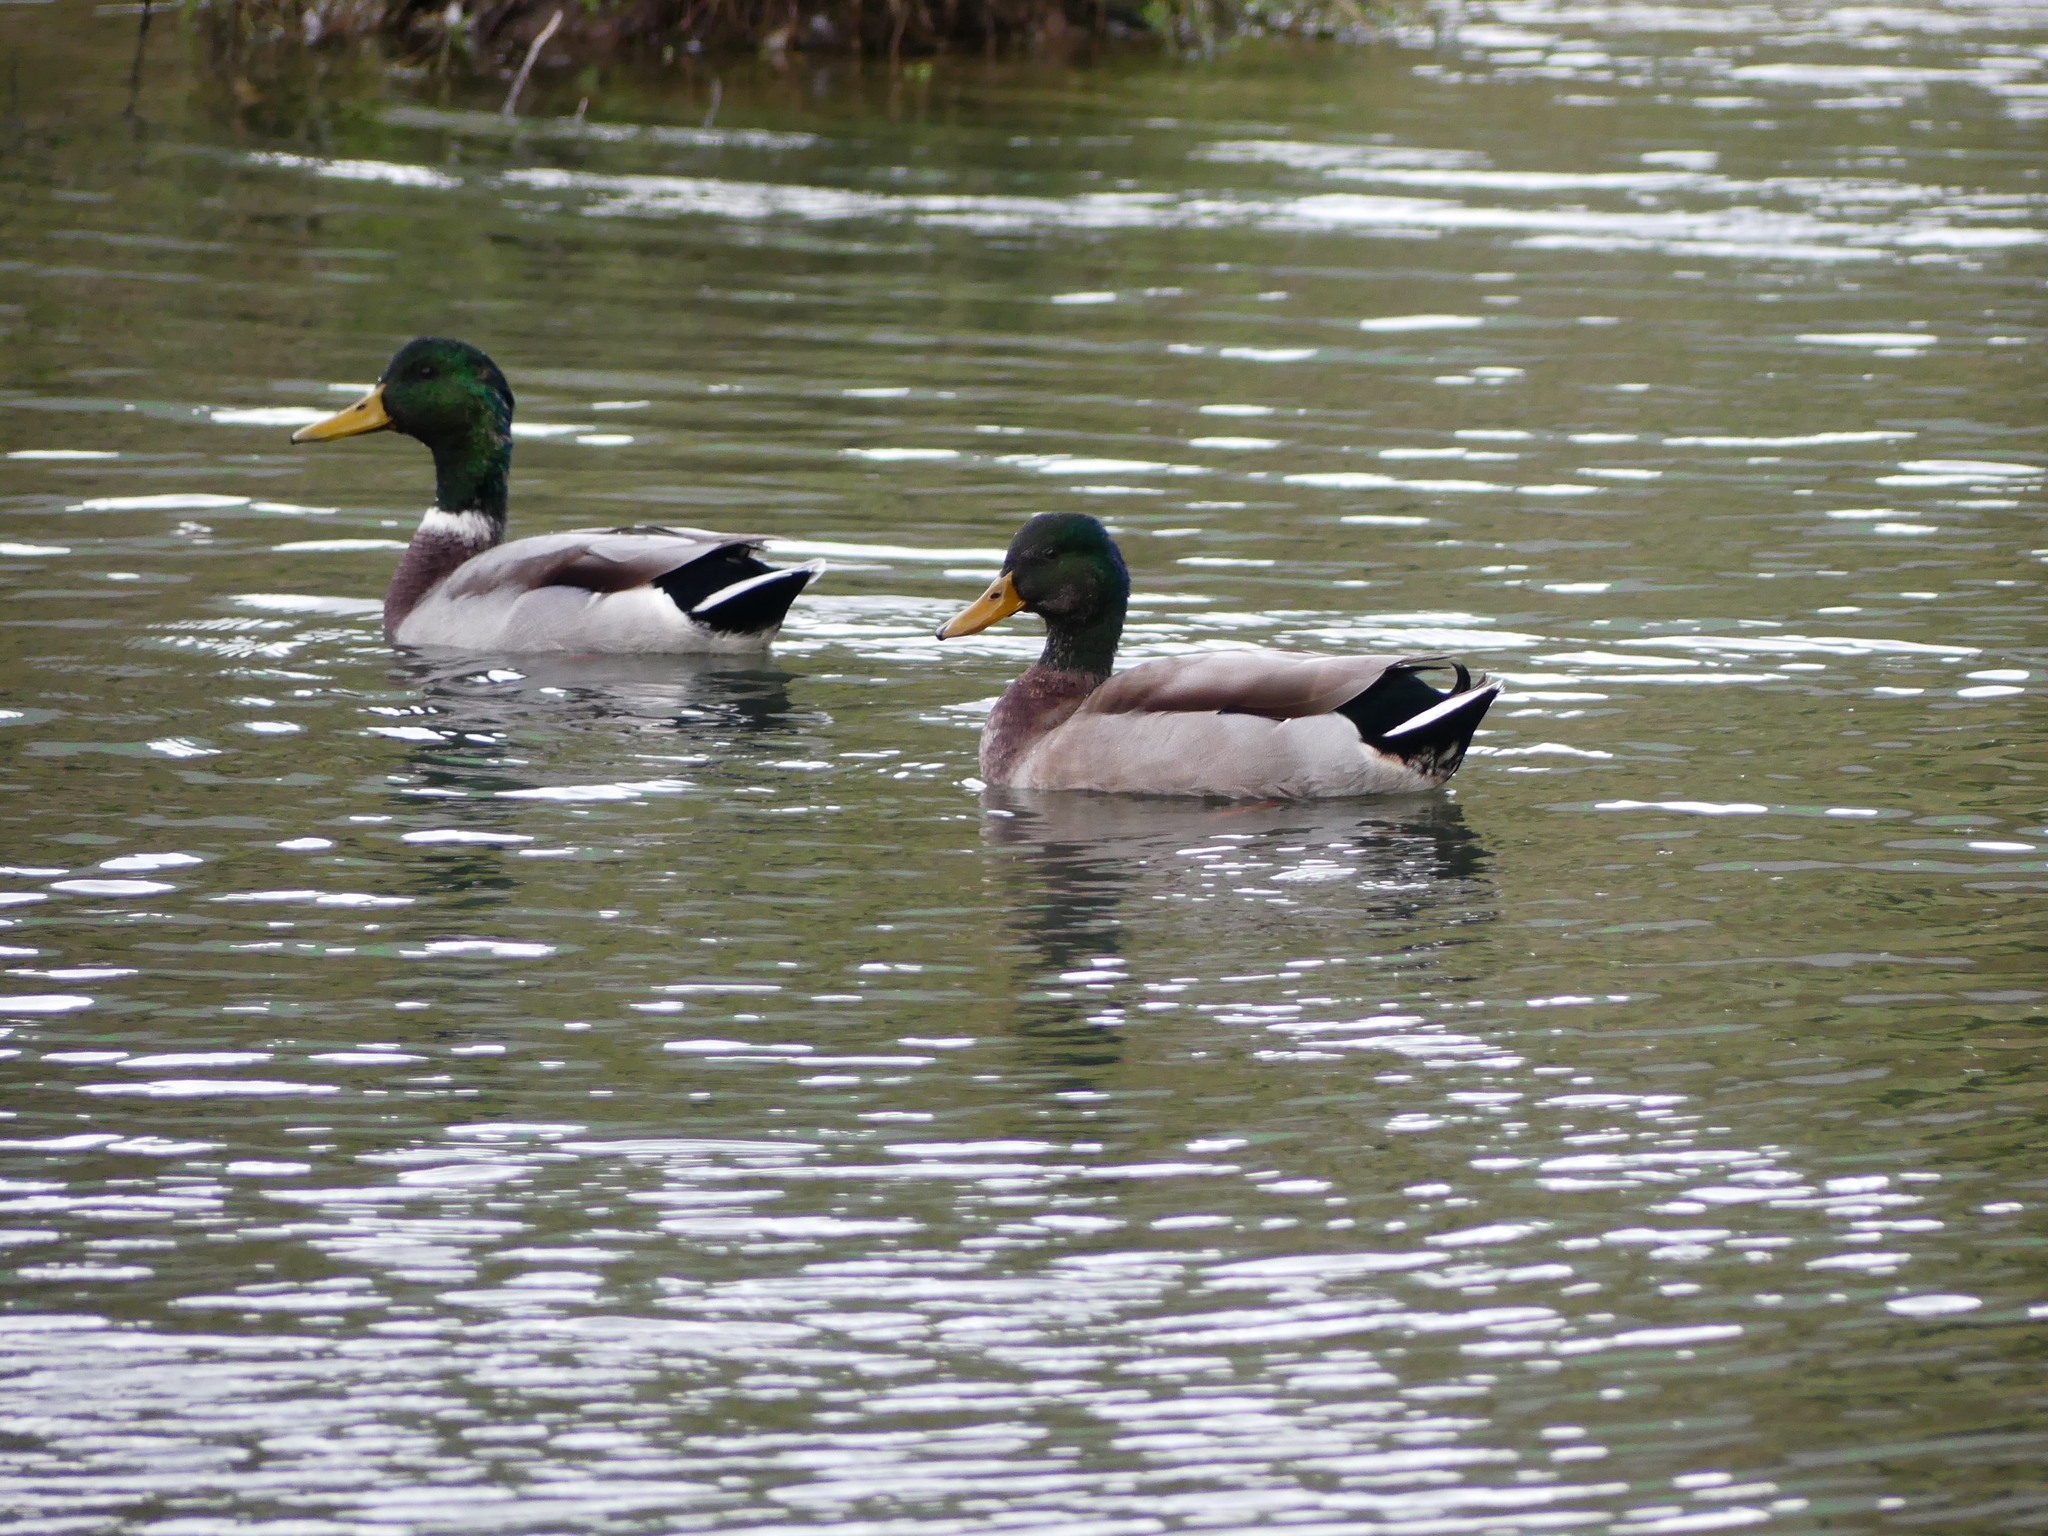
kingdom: Animalia
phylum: Chordata
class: Aves
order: Anseriformes
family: Anatidae
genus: Anas
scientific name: Anas platyrhynchos
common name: Mallard
